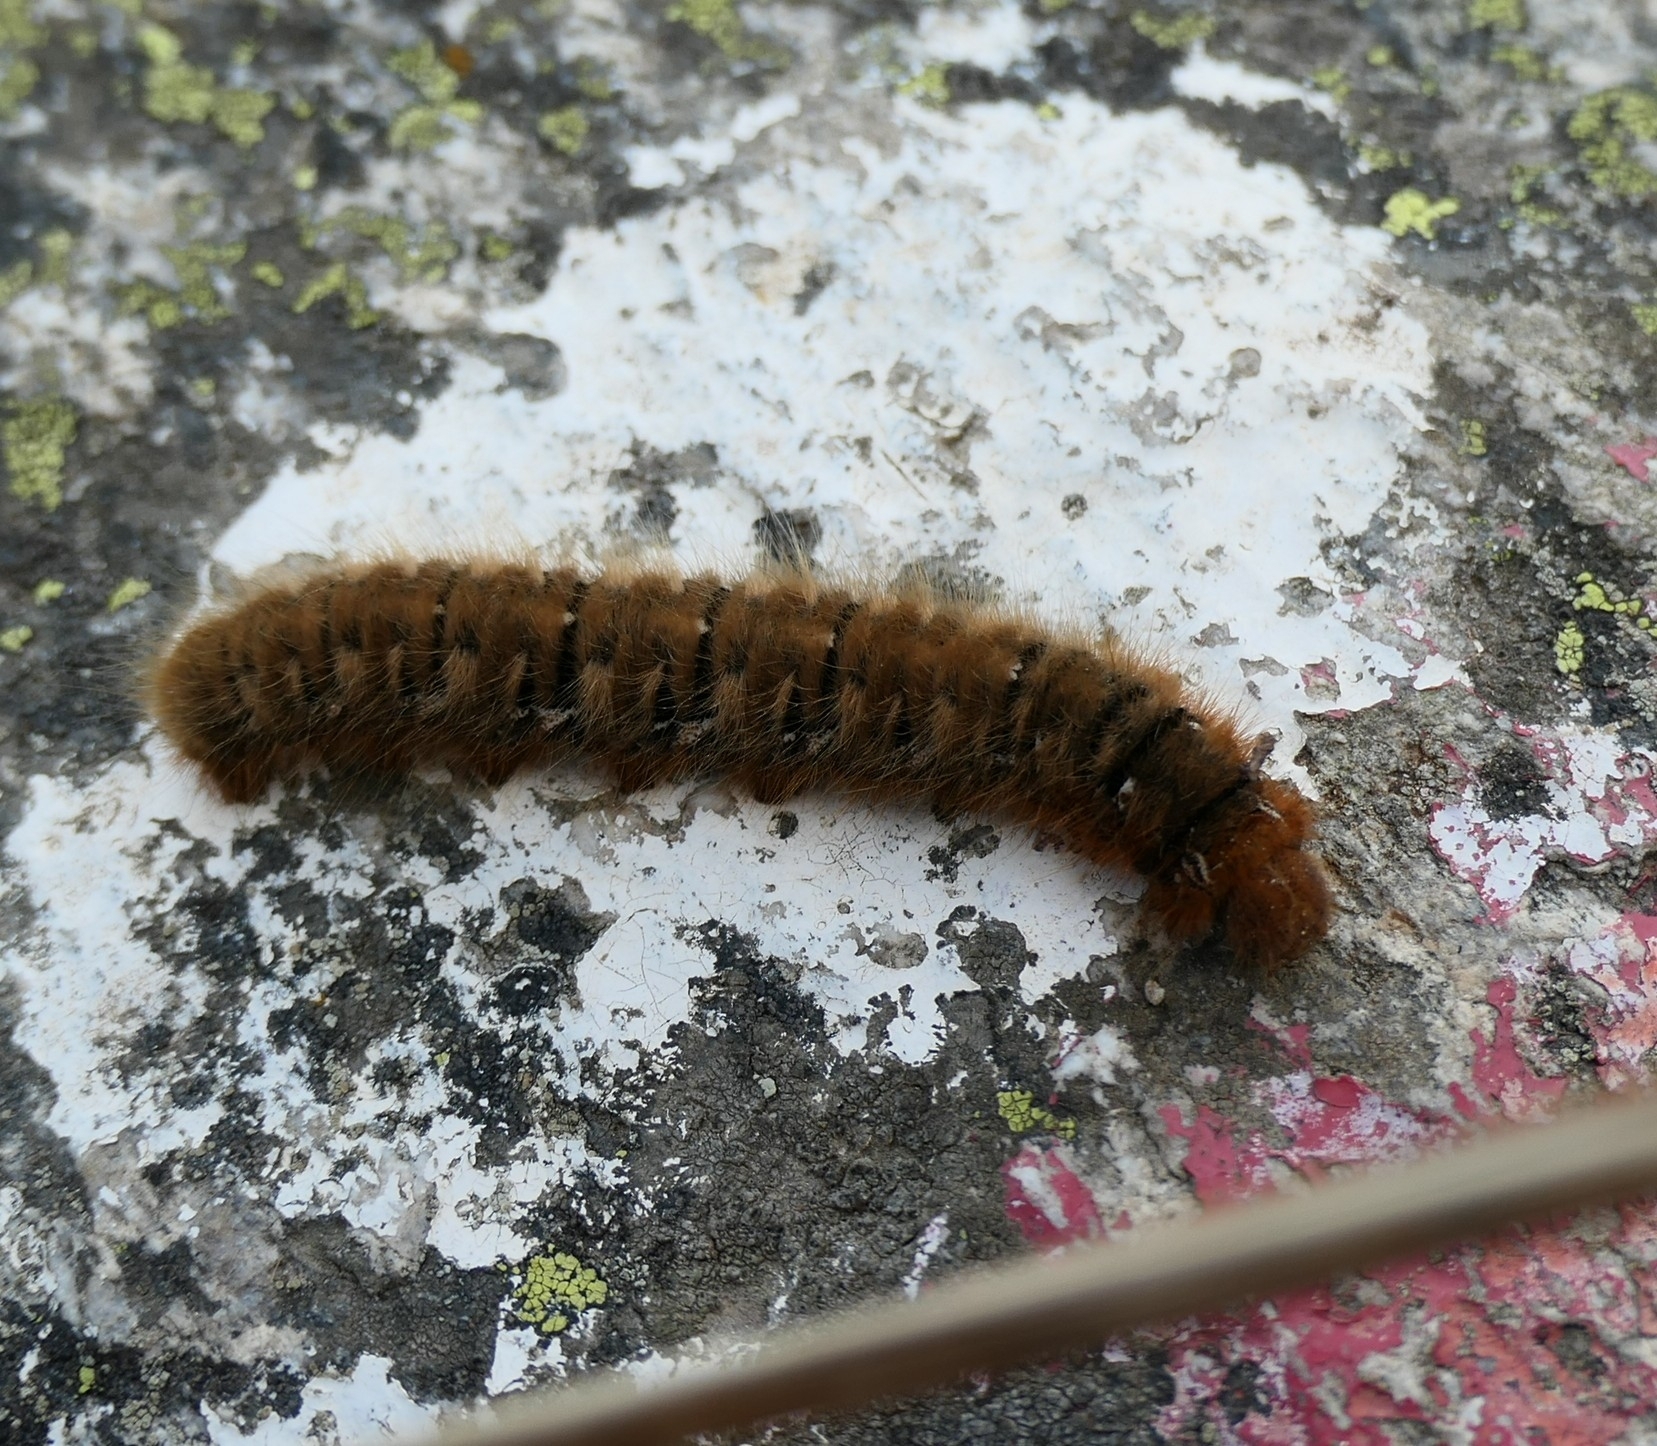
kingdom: Animalia
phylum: Arthropoda
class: Insecta
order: Lepidoptera
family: Lasiocampidae
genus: Lasiocampa
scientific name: Lasiocampa quercus
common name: Oak eggar
